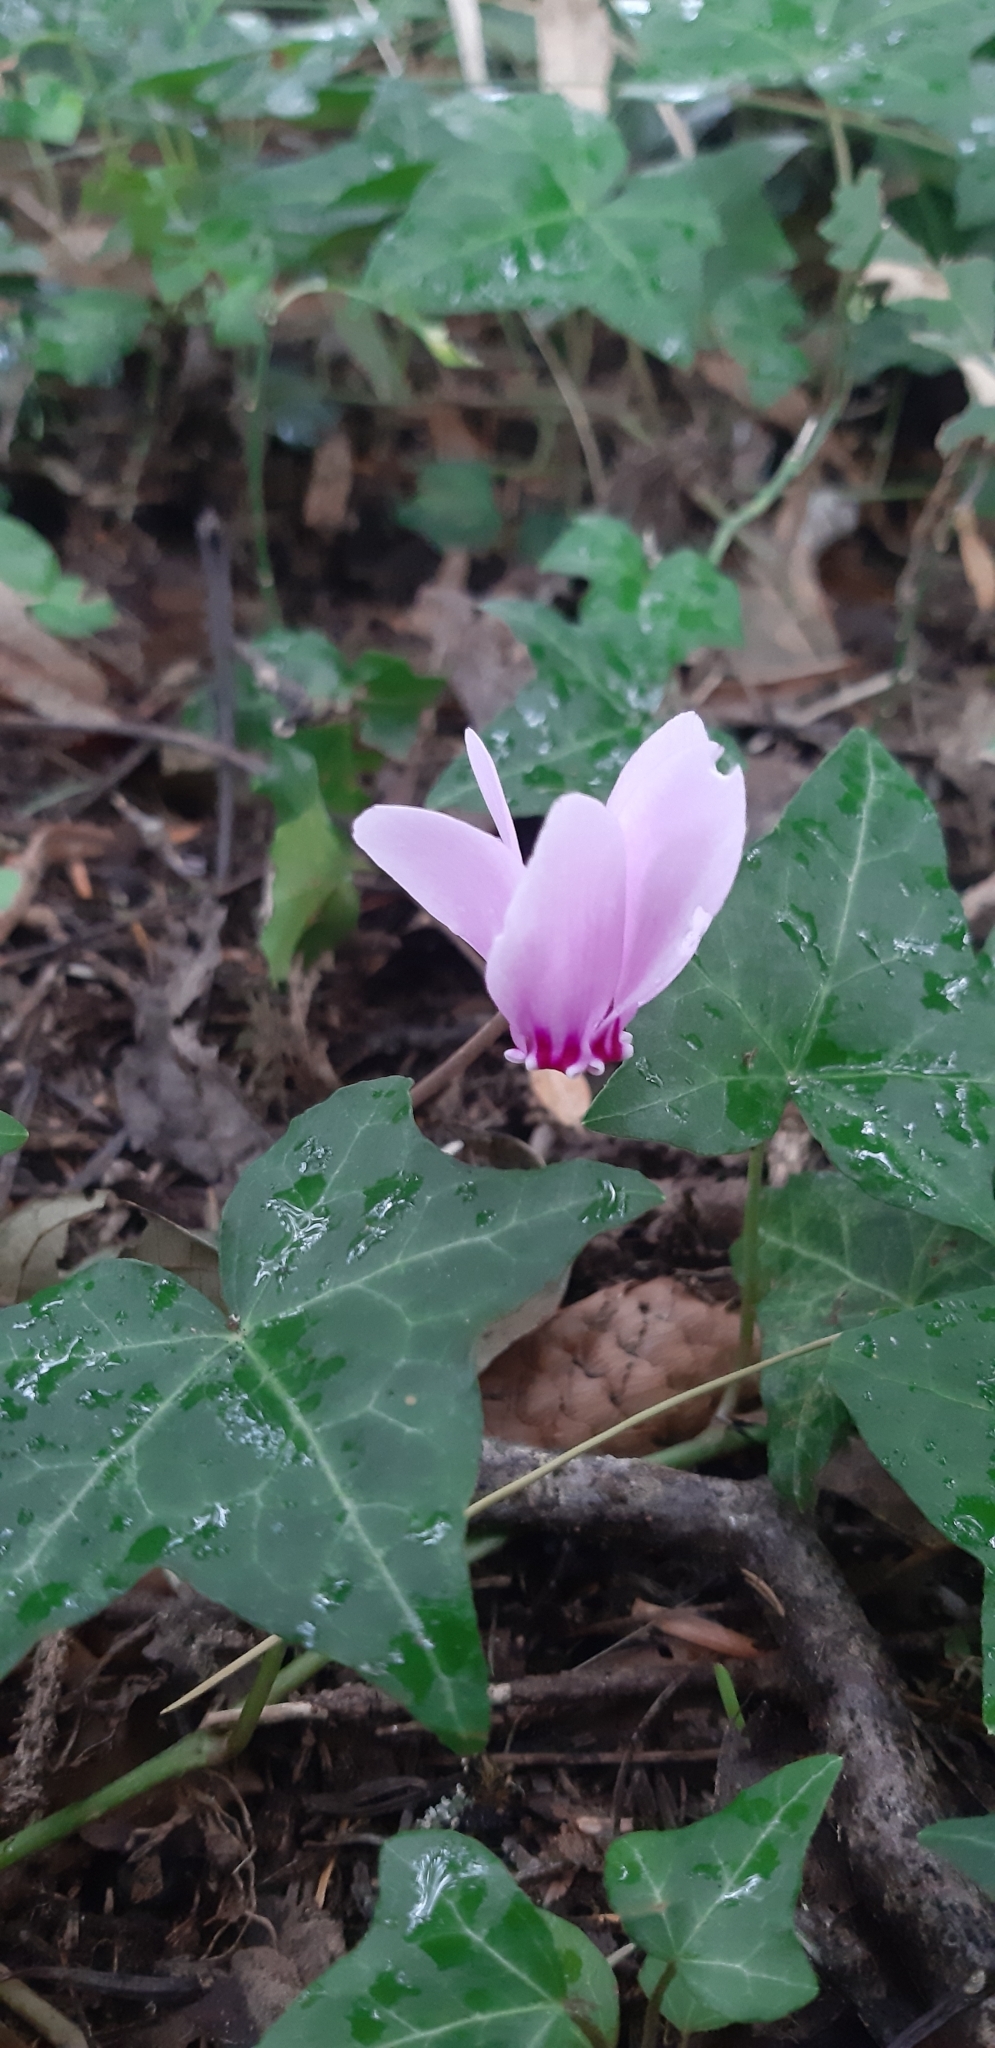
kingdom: Plantae
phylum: Tracheophyta
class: Magnoliopsida
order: Ericales
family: Primulaceae
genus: Cyclamen
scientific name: Cyclamen hederifolium
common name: Sowbread
